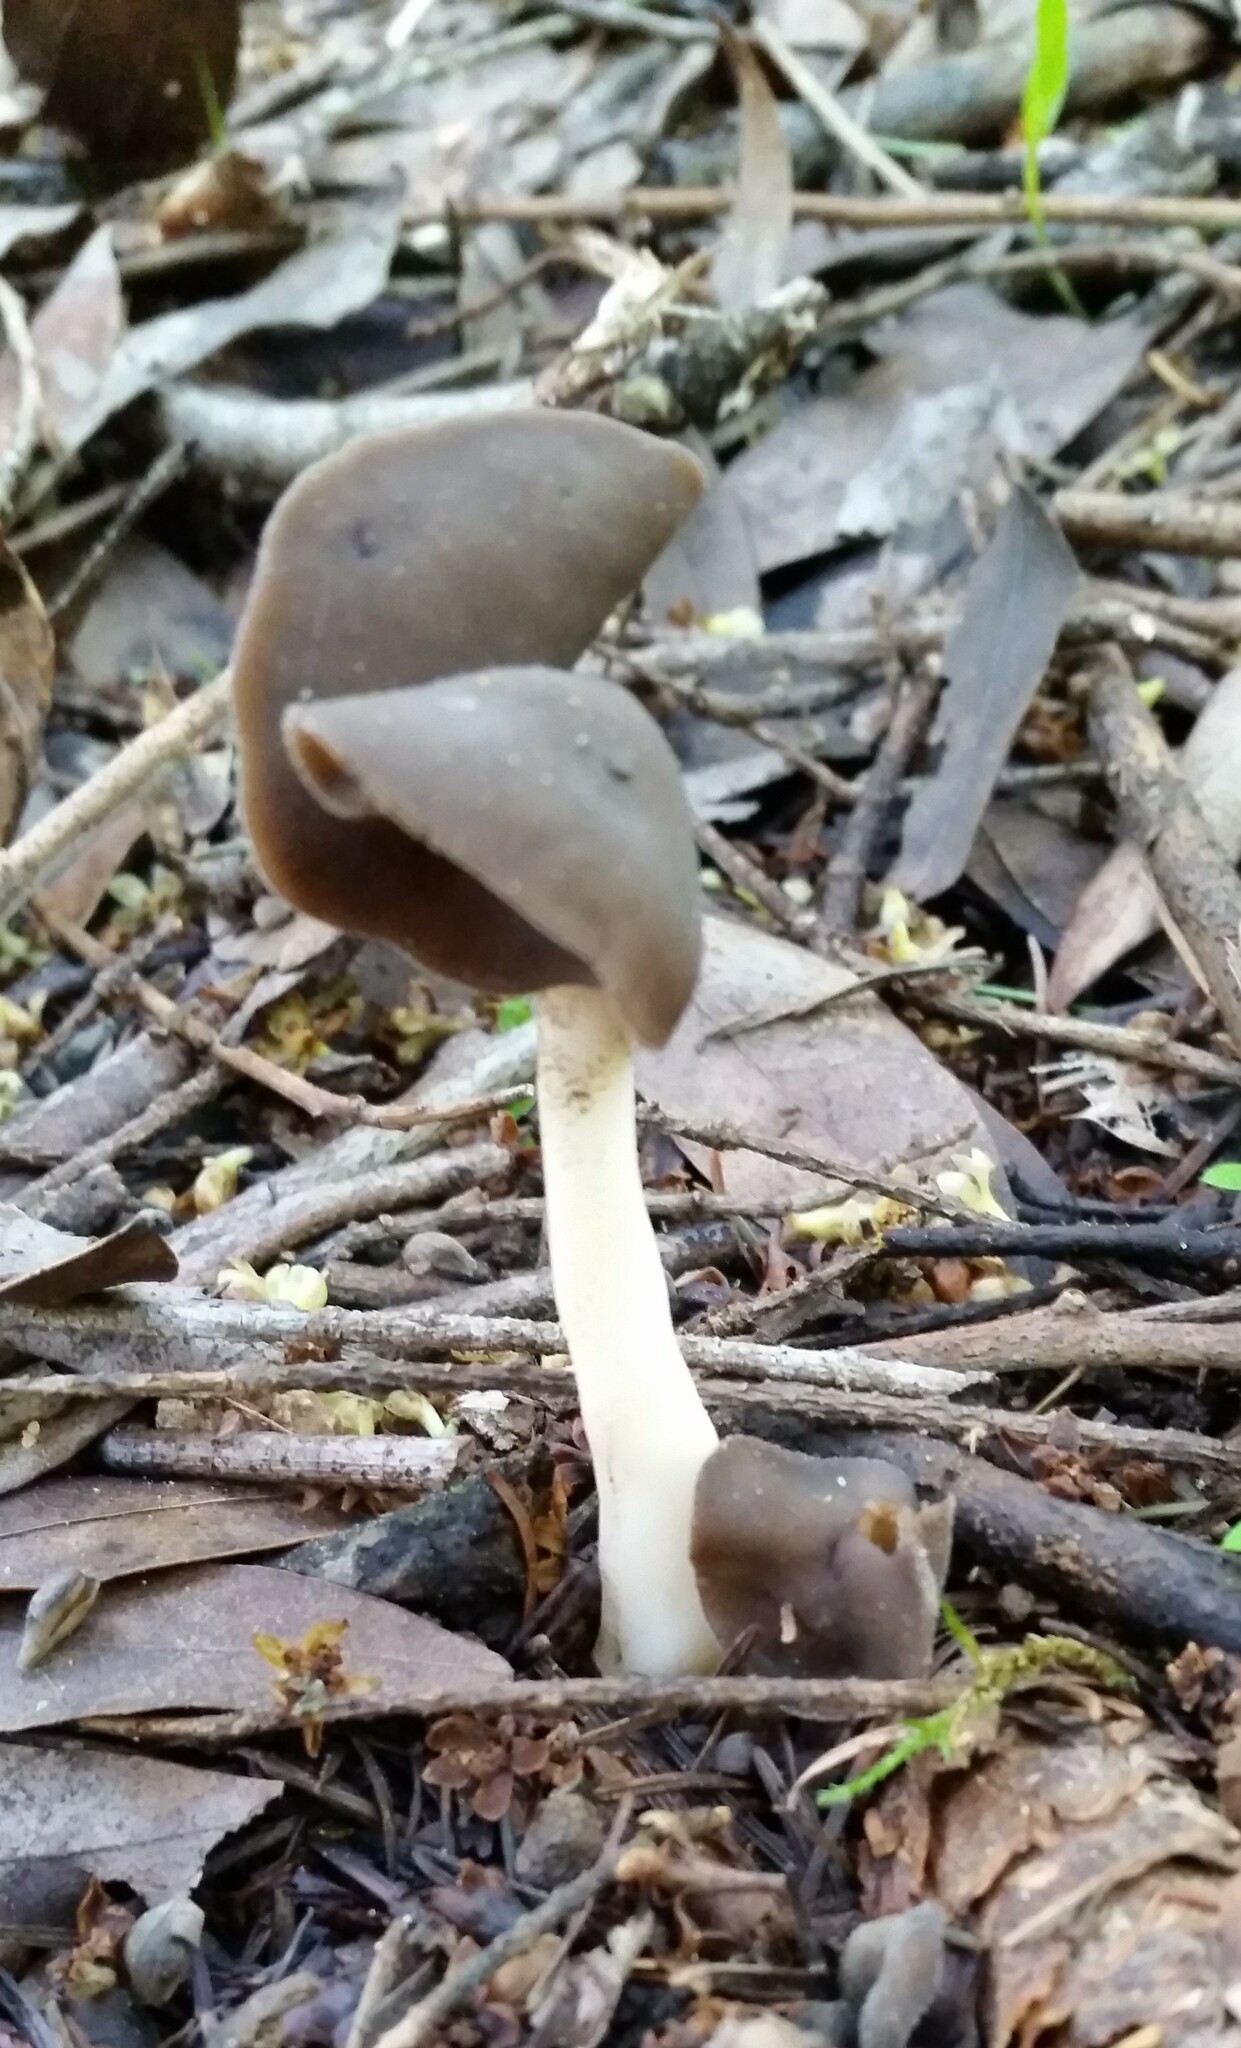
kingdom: Fungi
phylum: Ascomycota
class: Pezizomycetes
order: Pezizales
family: Helvellaceae
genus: Helvella
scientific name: Helvella compressa
